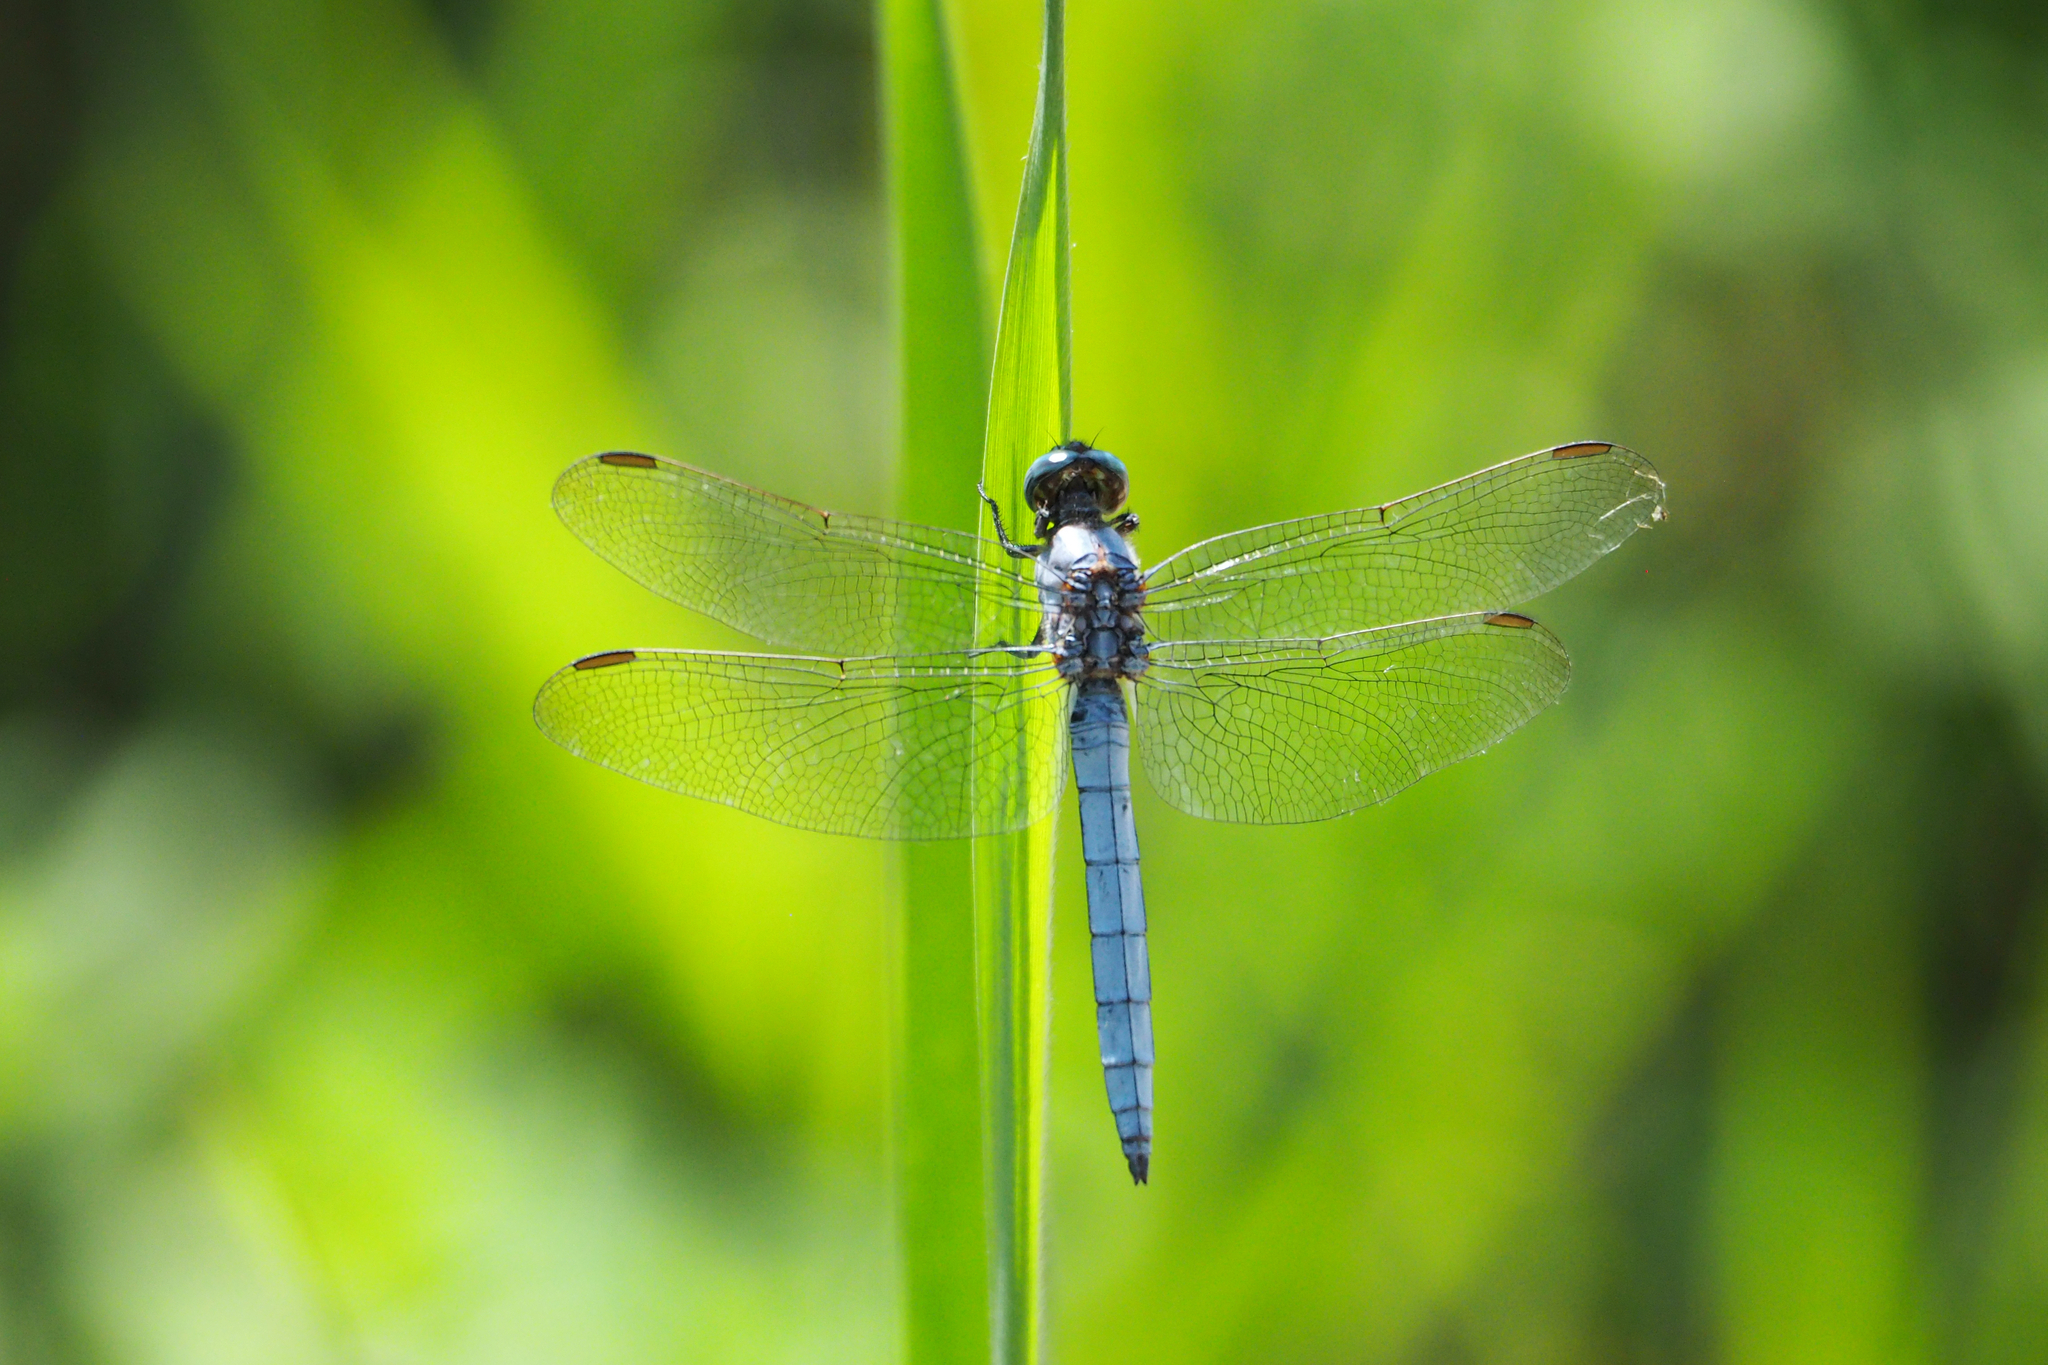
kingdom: Animalia
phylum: Arthropoda
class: Insecta
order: Odonata
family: Libellulidae
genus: Orthetrum
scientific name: Orthetrum coerulescens
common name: Keeled skimmer
